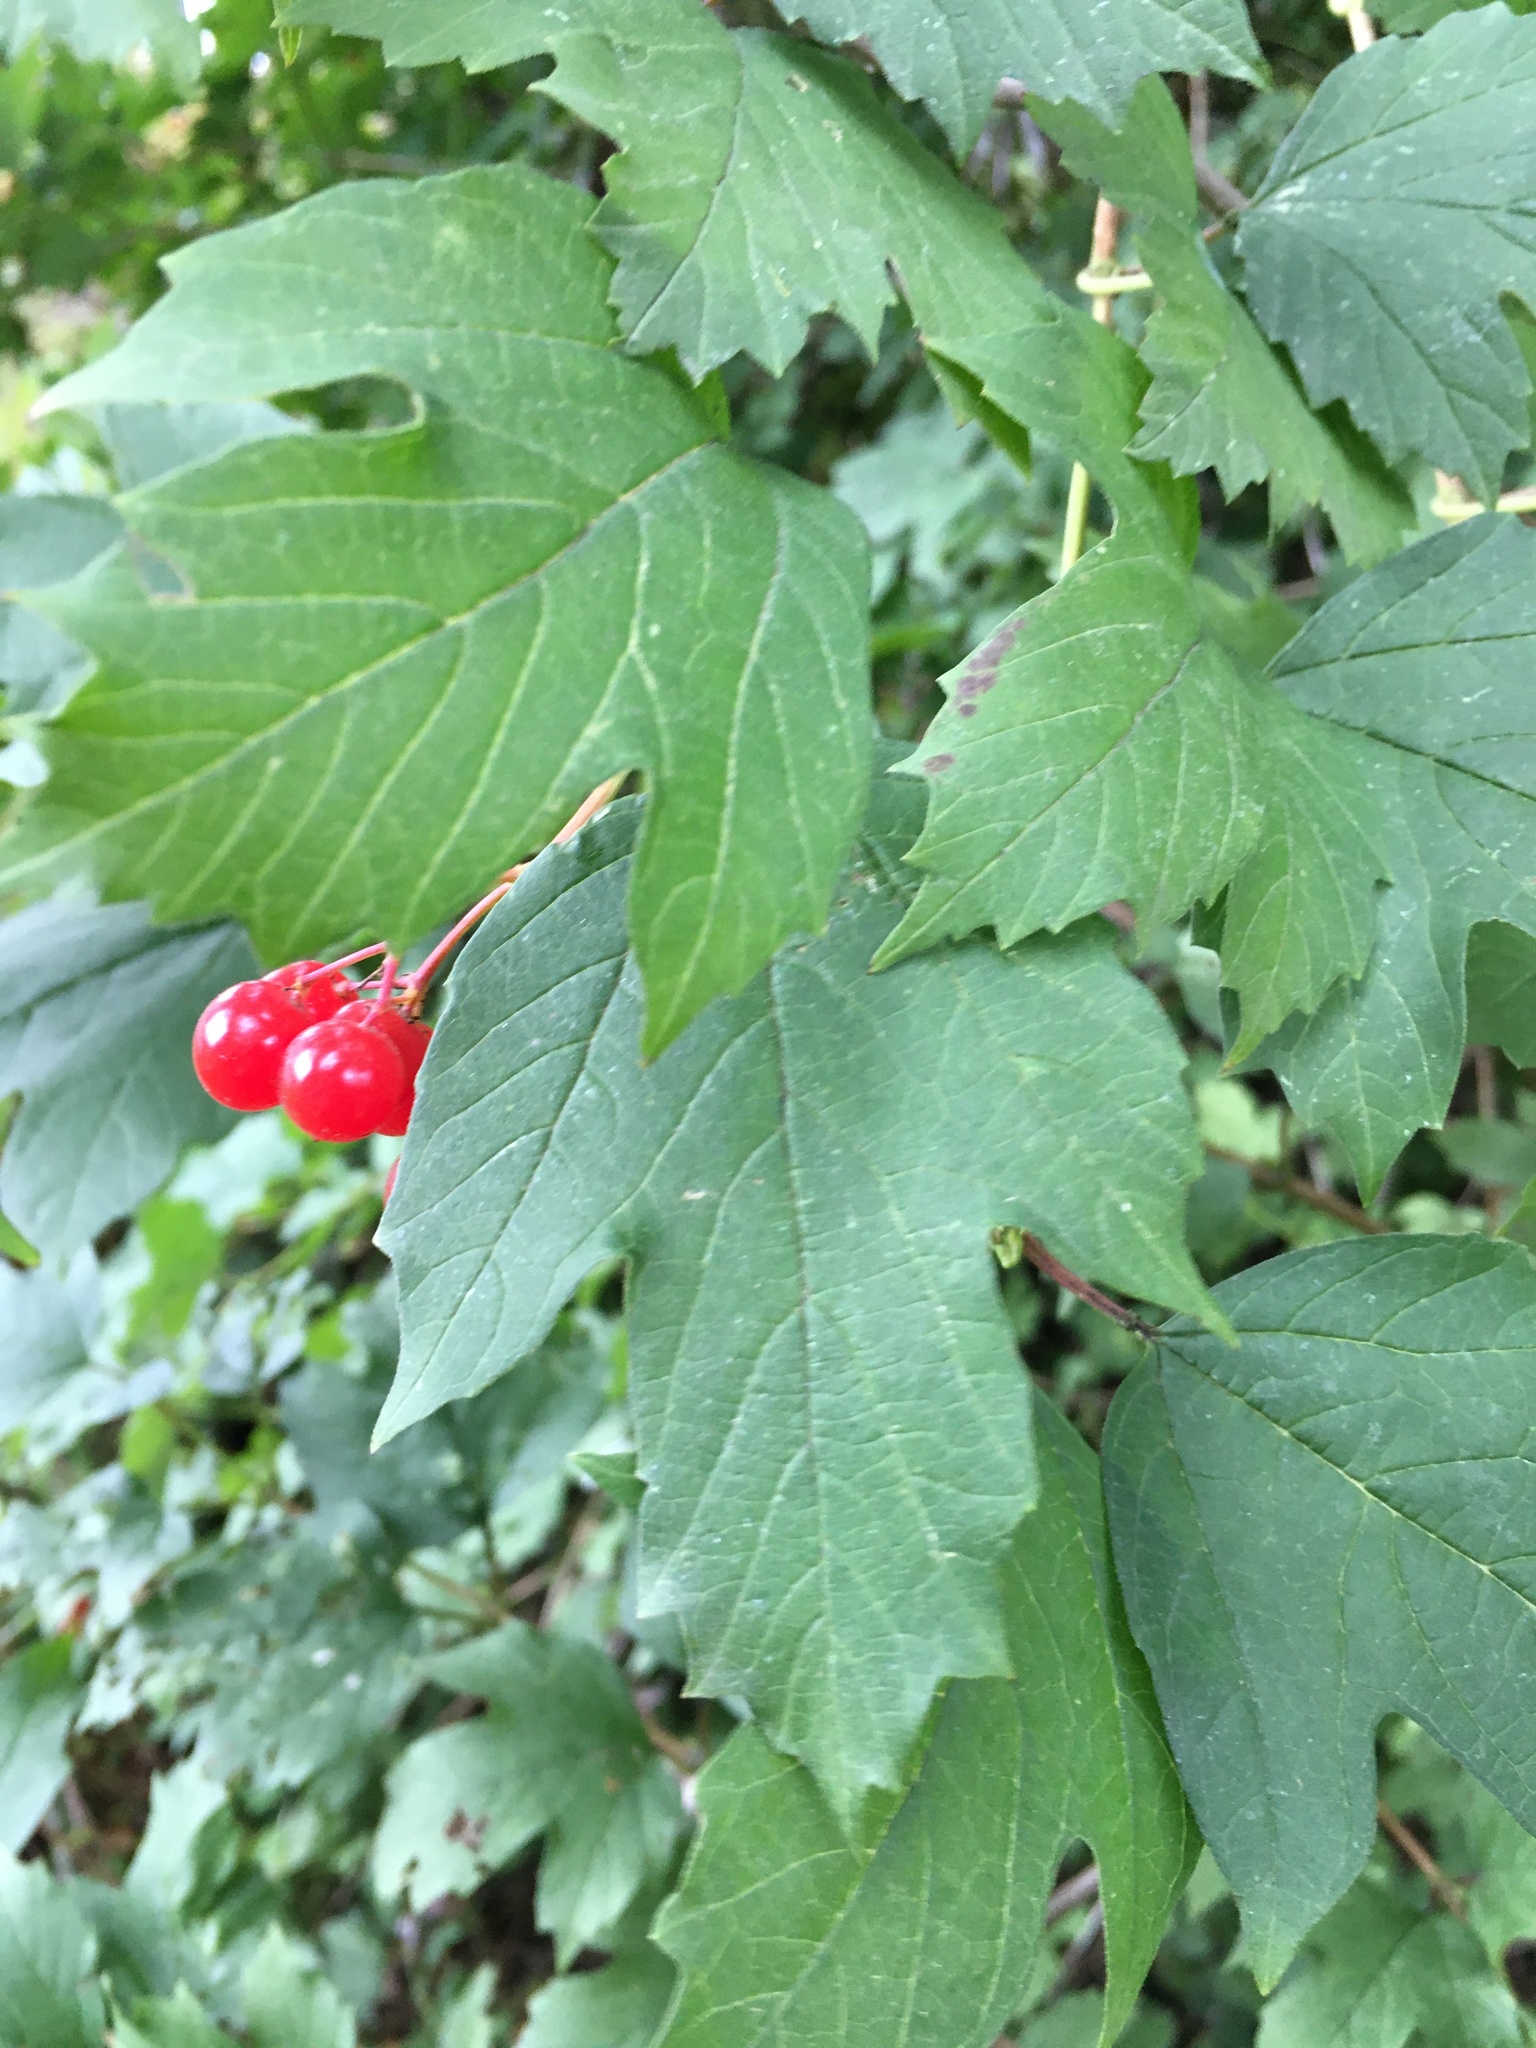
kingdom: Plantae
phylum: Tracheophyta
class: Magnoliopsida
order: Dipsacales
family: Viburnaceae
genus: Viburnum
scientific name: Viburnum opulus
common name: Guelder-rose
